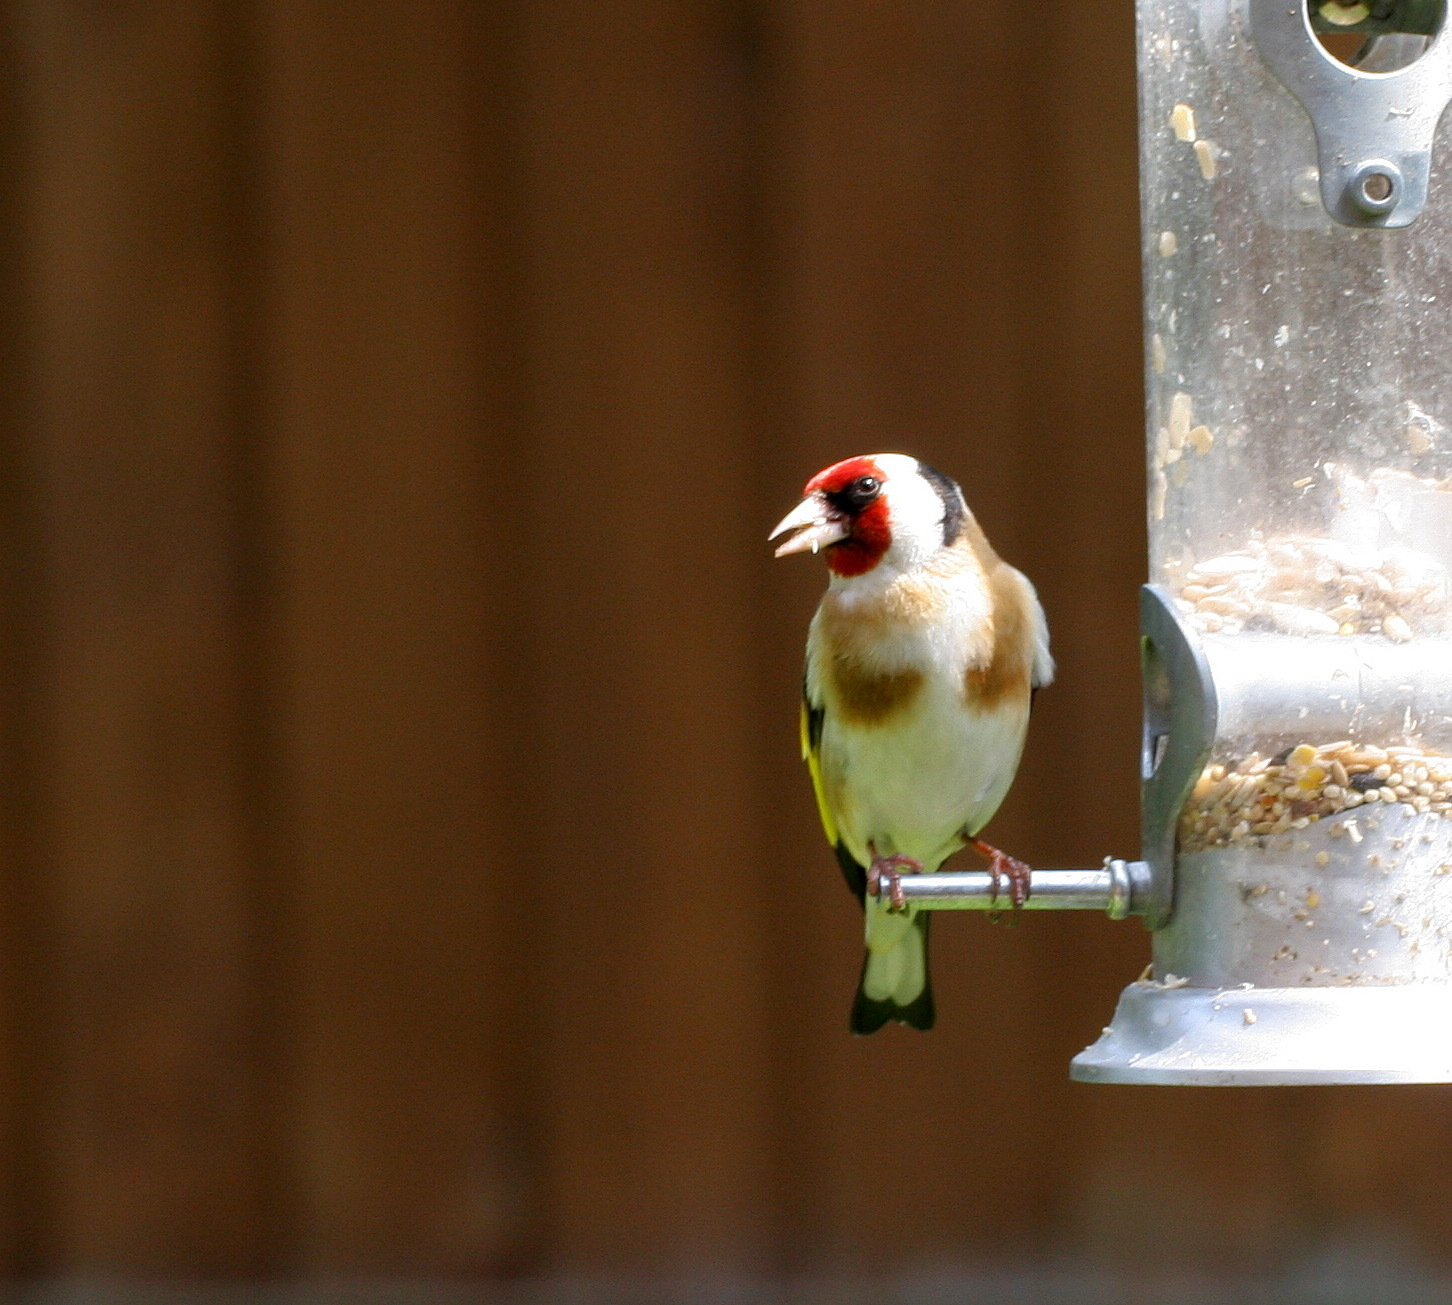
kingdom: Animalia
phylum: Chordata
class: Aves
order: Passeriformes
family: Fringillidae
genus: Carduelis
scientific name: Carduelis carduelis
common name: European goldfinch
